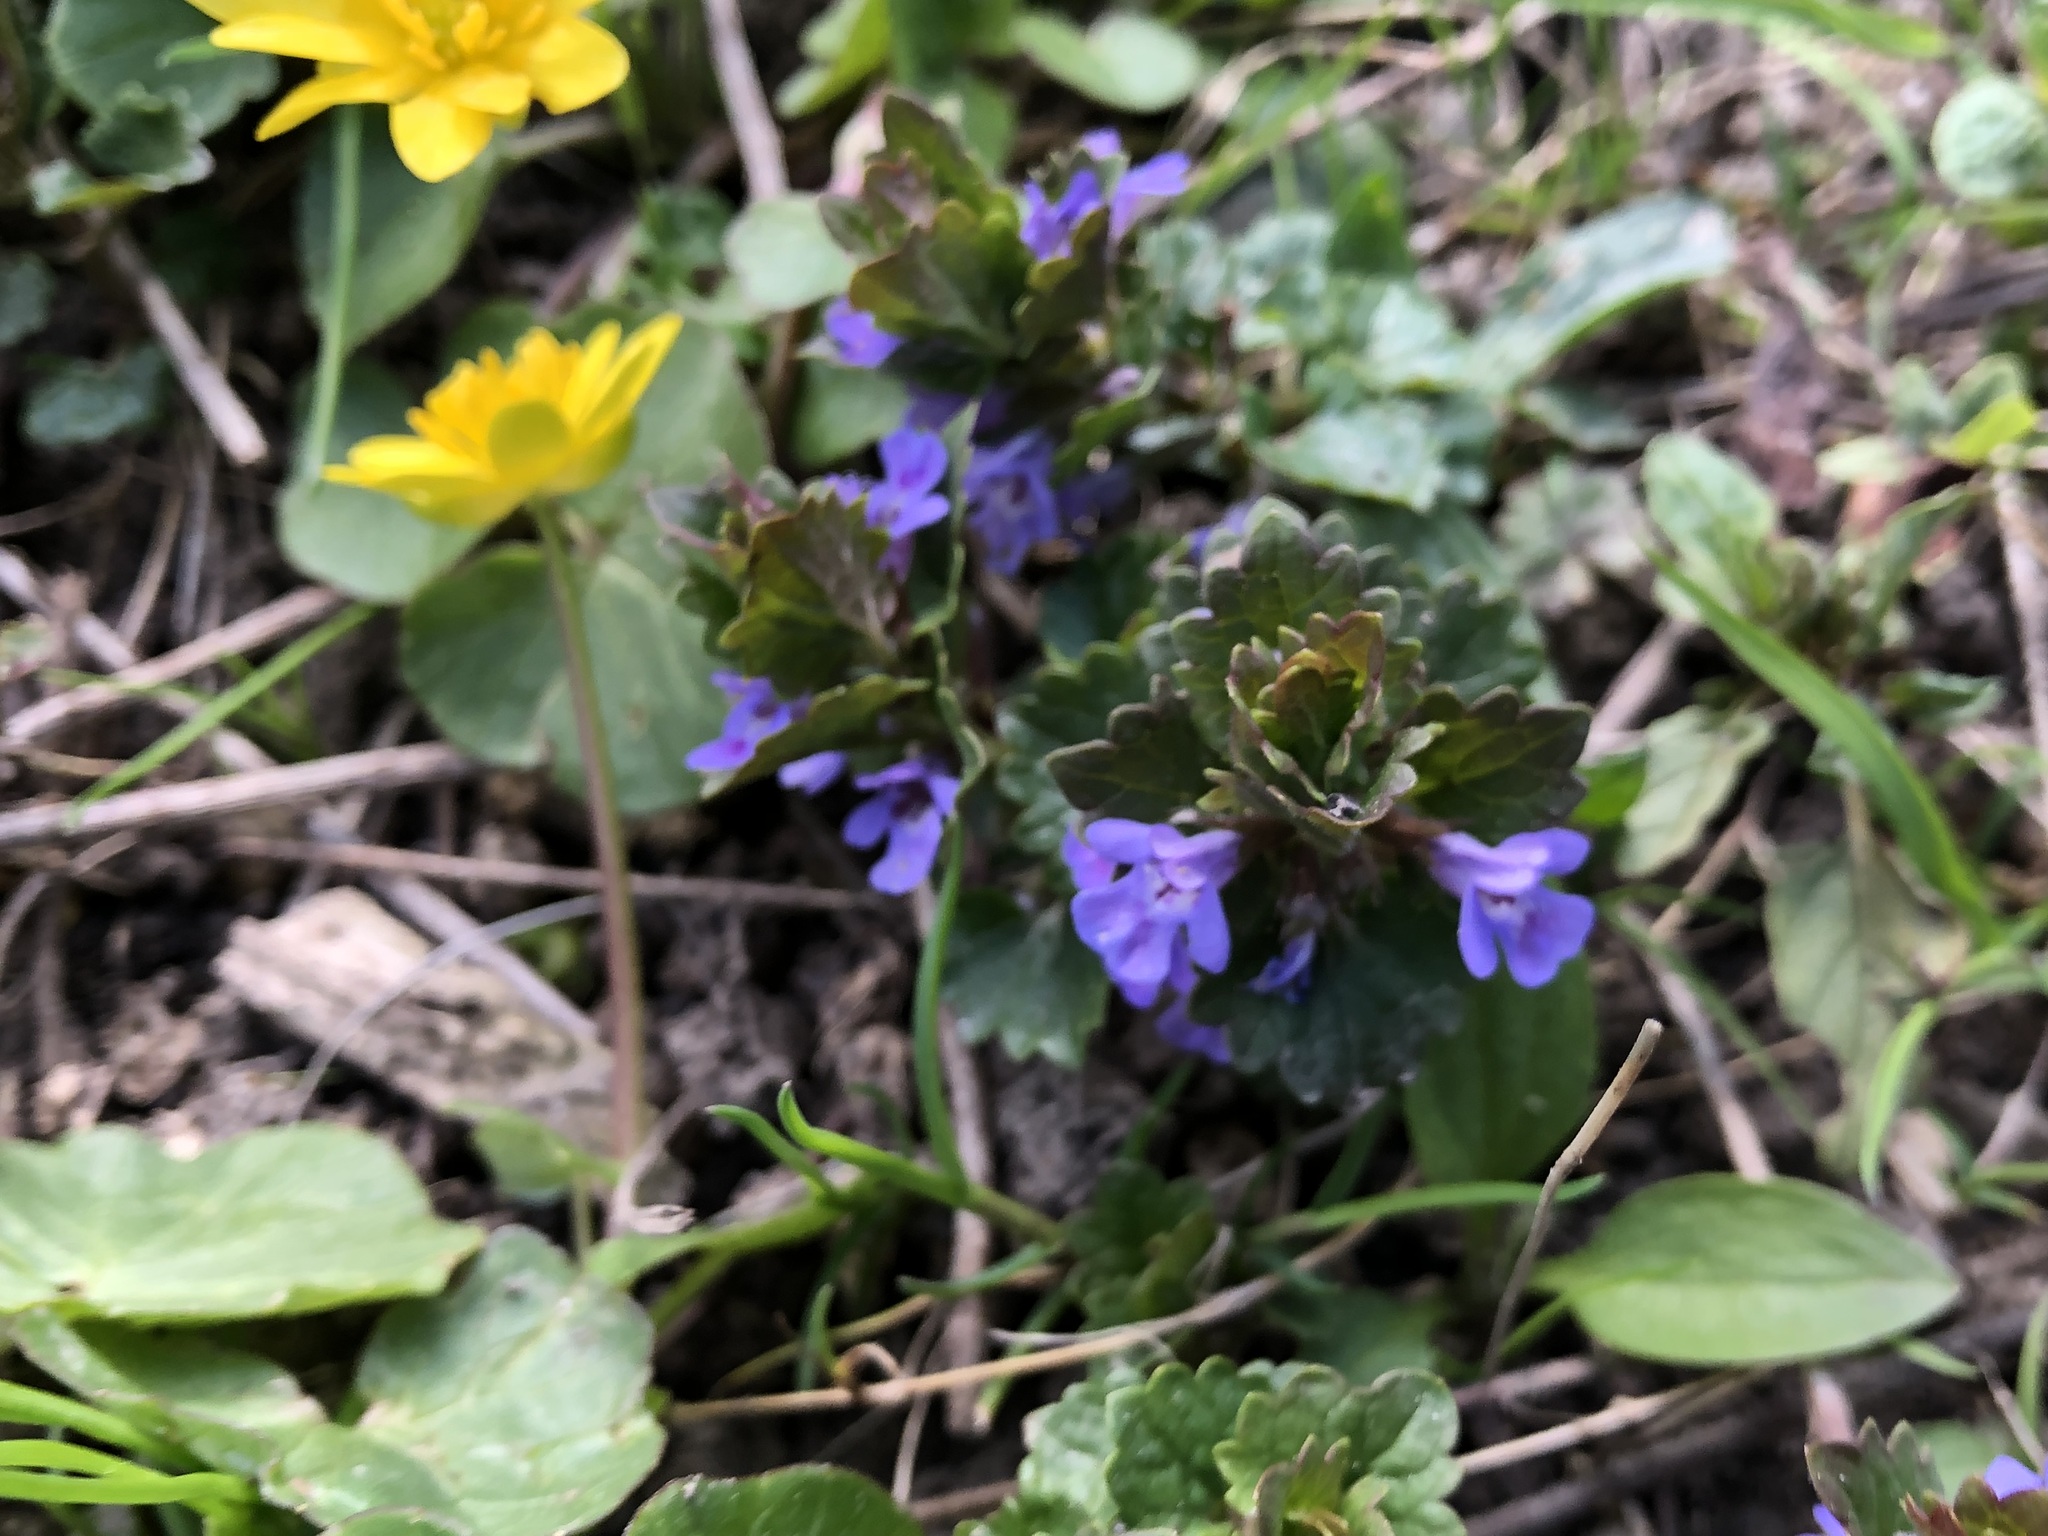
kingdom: Plantae
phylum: Tracheophyta
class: Magnoliopsida
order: Lamiales
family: Lamiaceae
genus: Glechoma
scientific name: Glechoma hederacea
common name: Ground ivy
